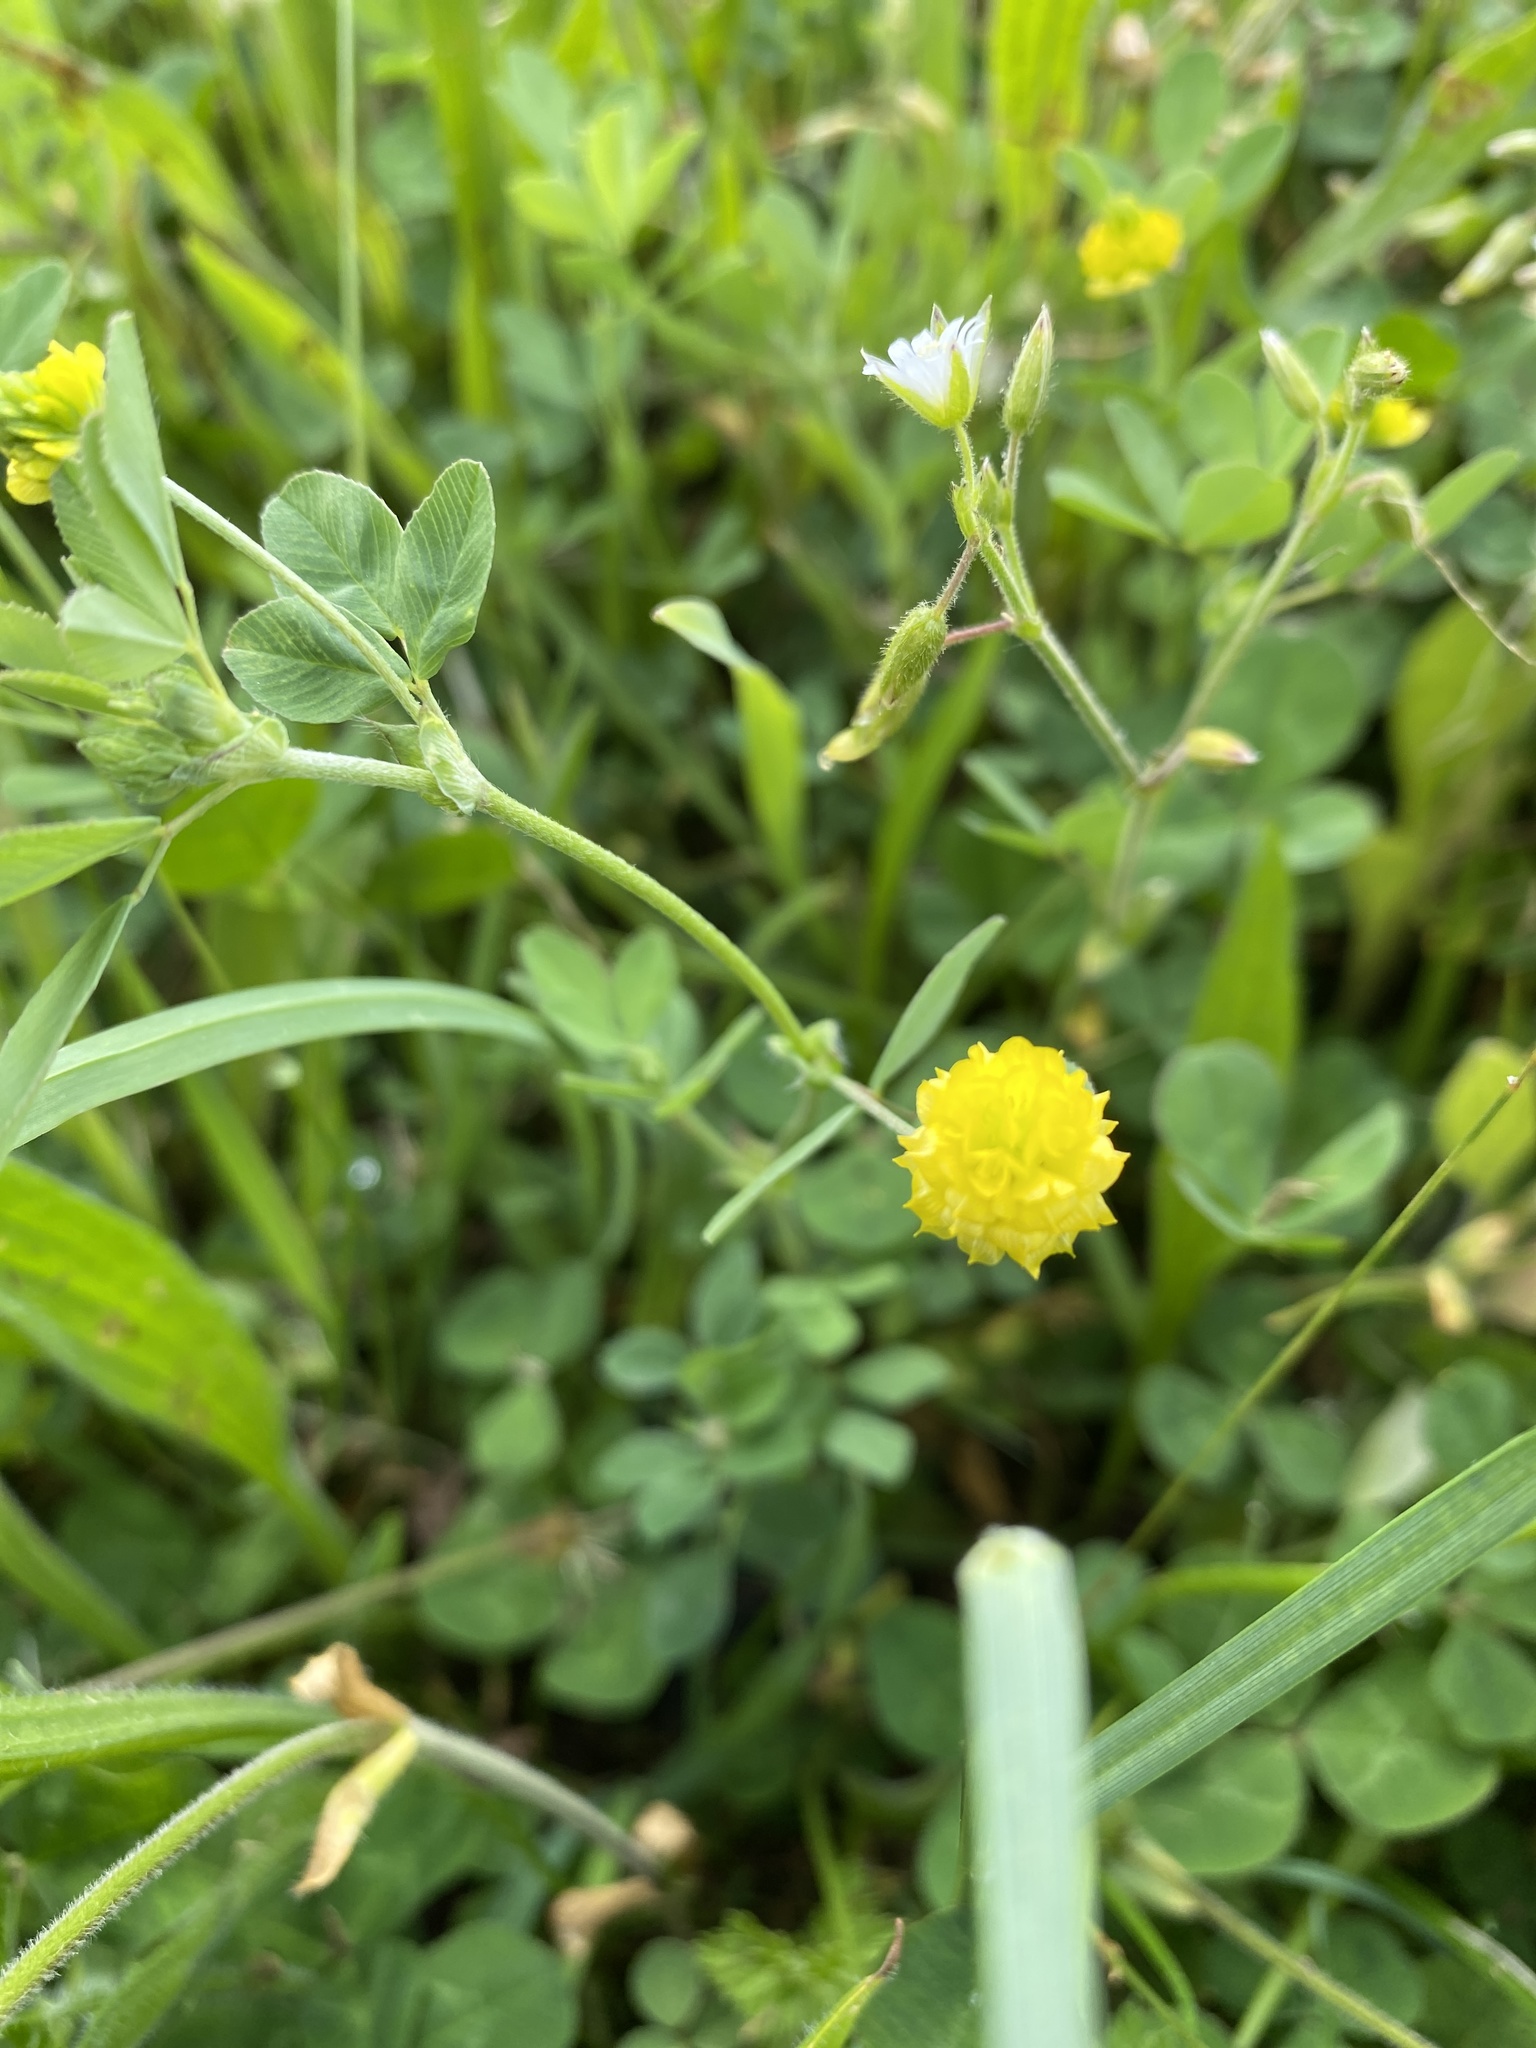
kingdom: Plantae
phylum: Tracheophyta
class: Magnoliopsida
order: Fabales
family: Fabaceae
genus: Trifolium
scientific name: Trifolium campestre
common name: Field clover
